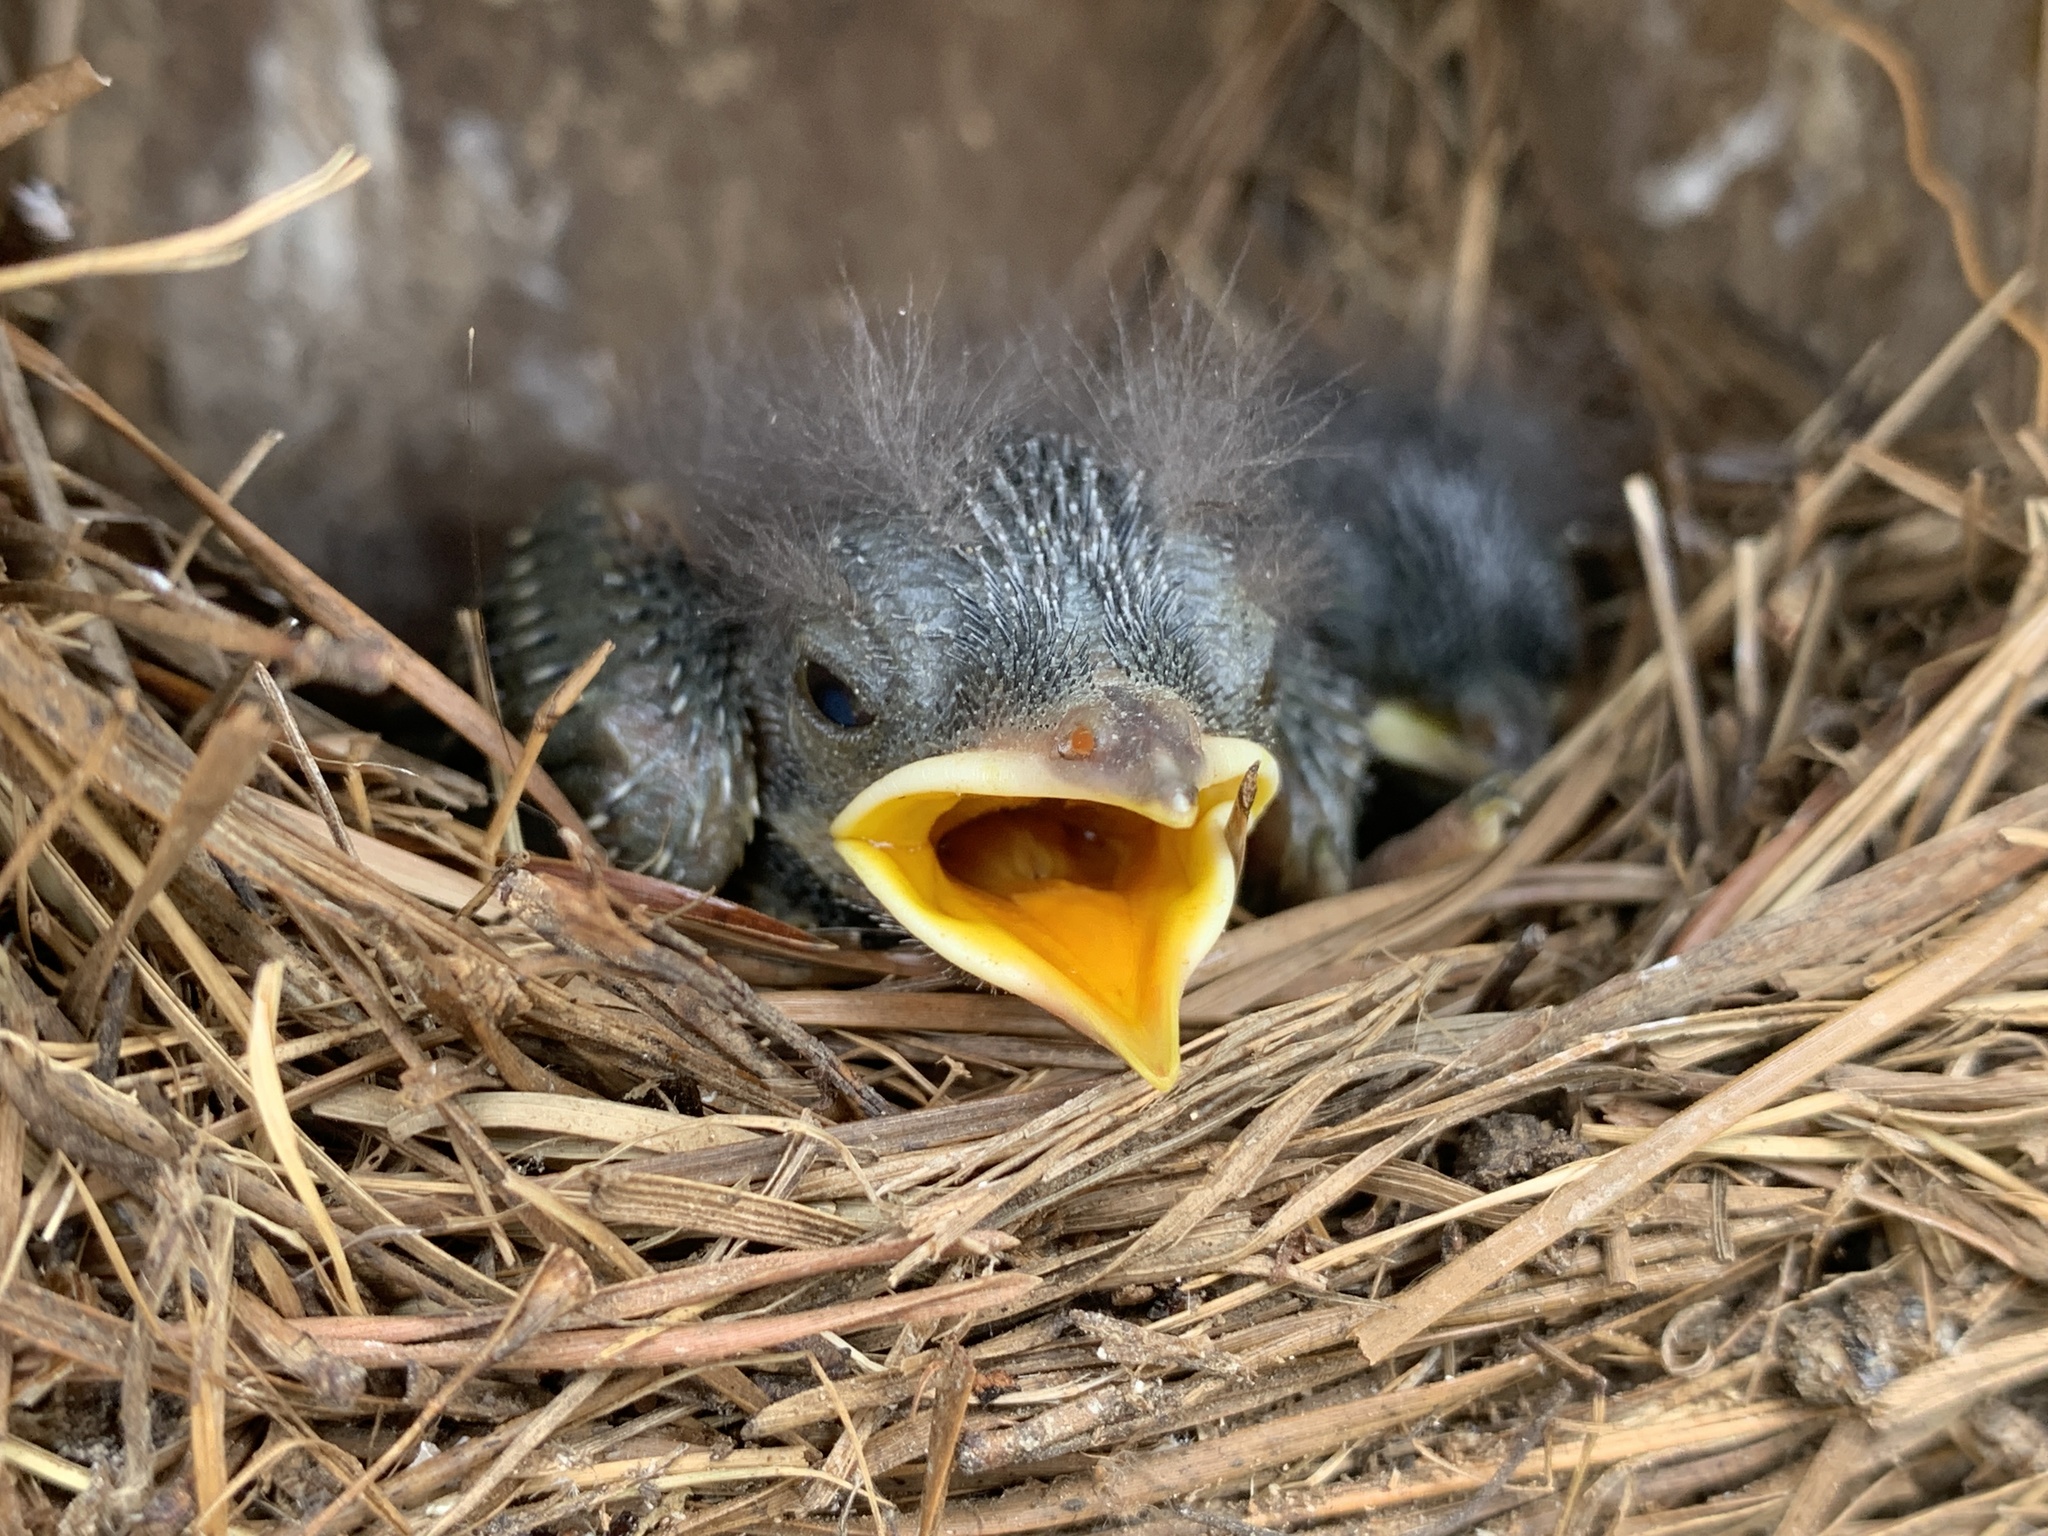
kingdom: Animalia
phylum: Chordata
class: Aves
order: Passeriformes
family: Turdidae
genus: Sialia
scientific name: Sialia sialis
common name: Eastern bluebird
